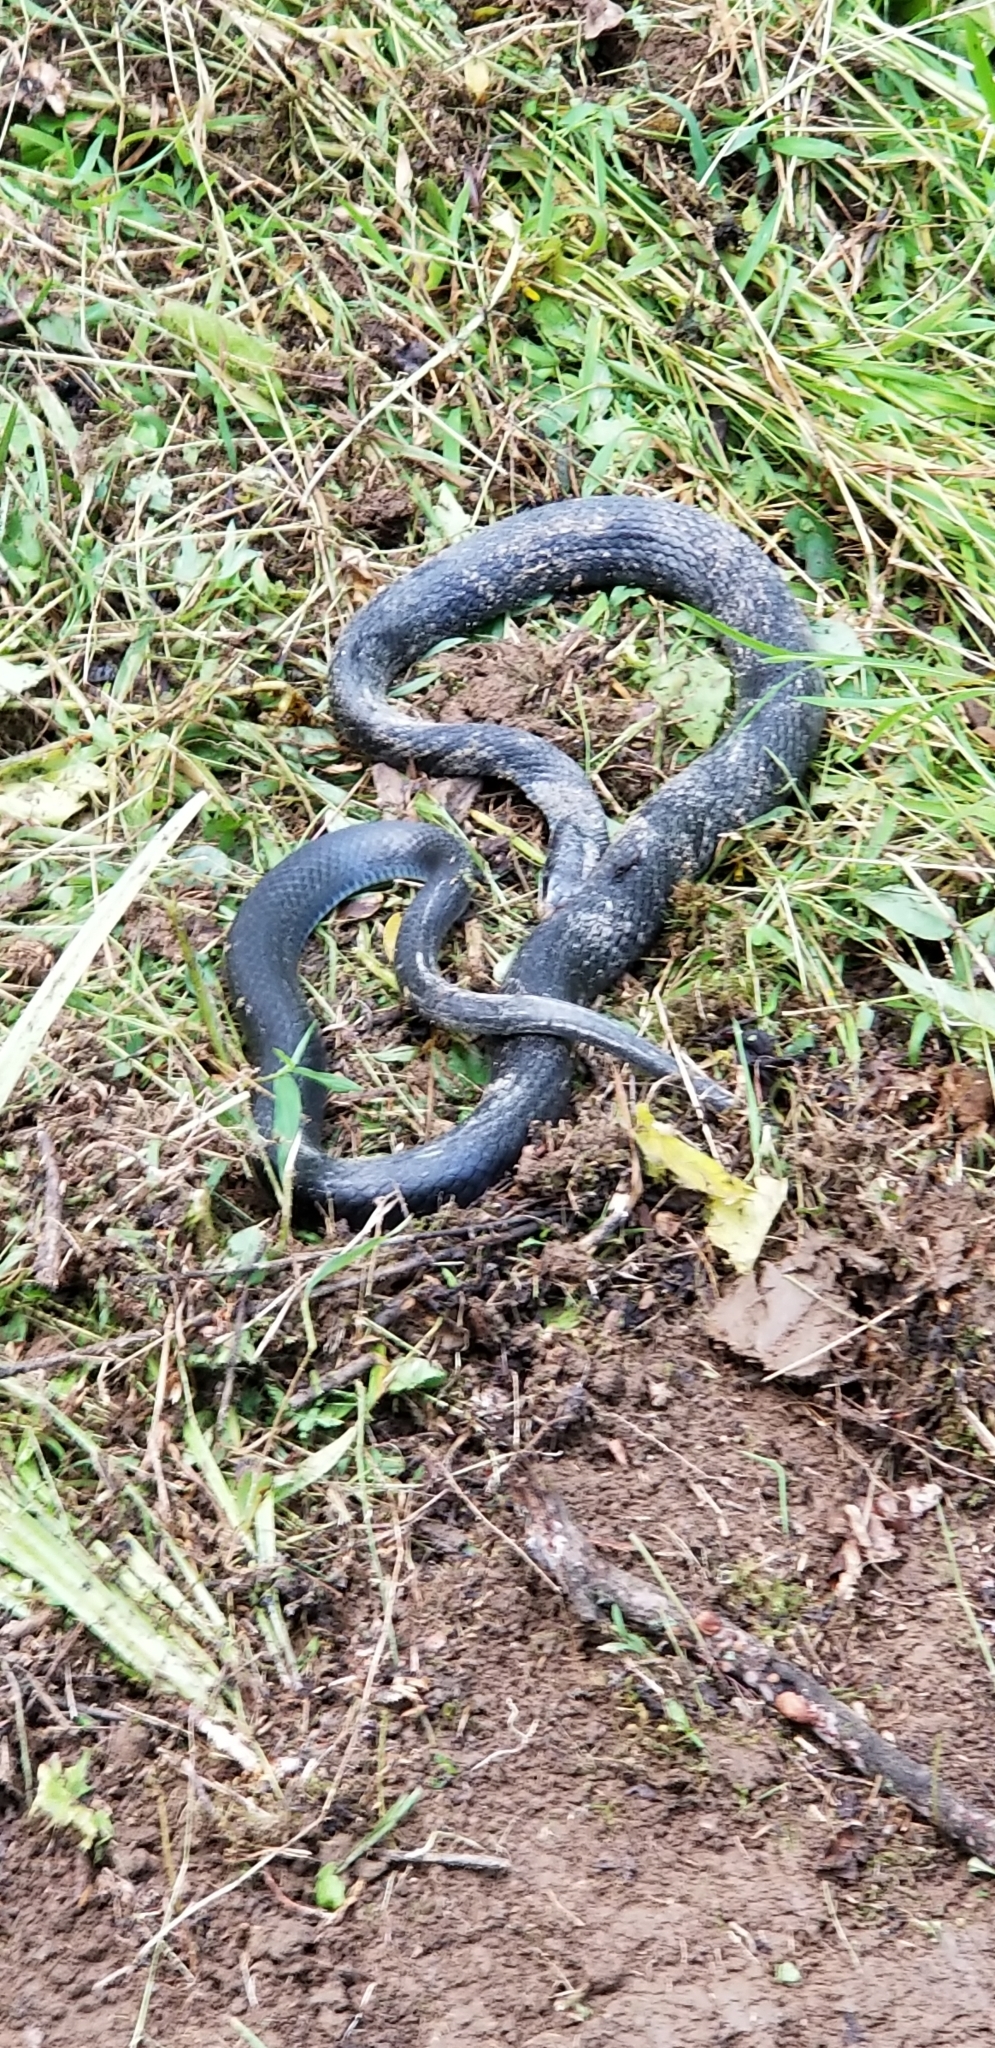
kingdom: Animalia
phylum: Chordata
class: Squamata
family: Colubridae
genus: Coluber
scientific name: Coluber constrictor
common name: Eastern racer
